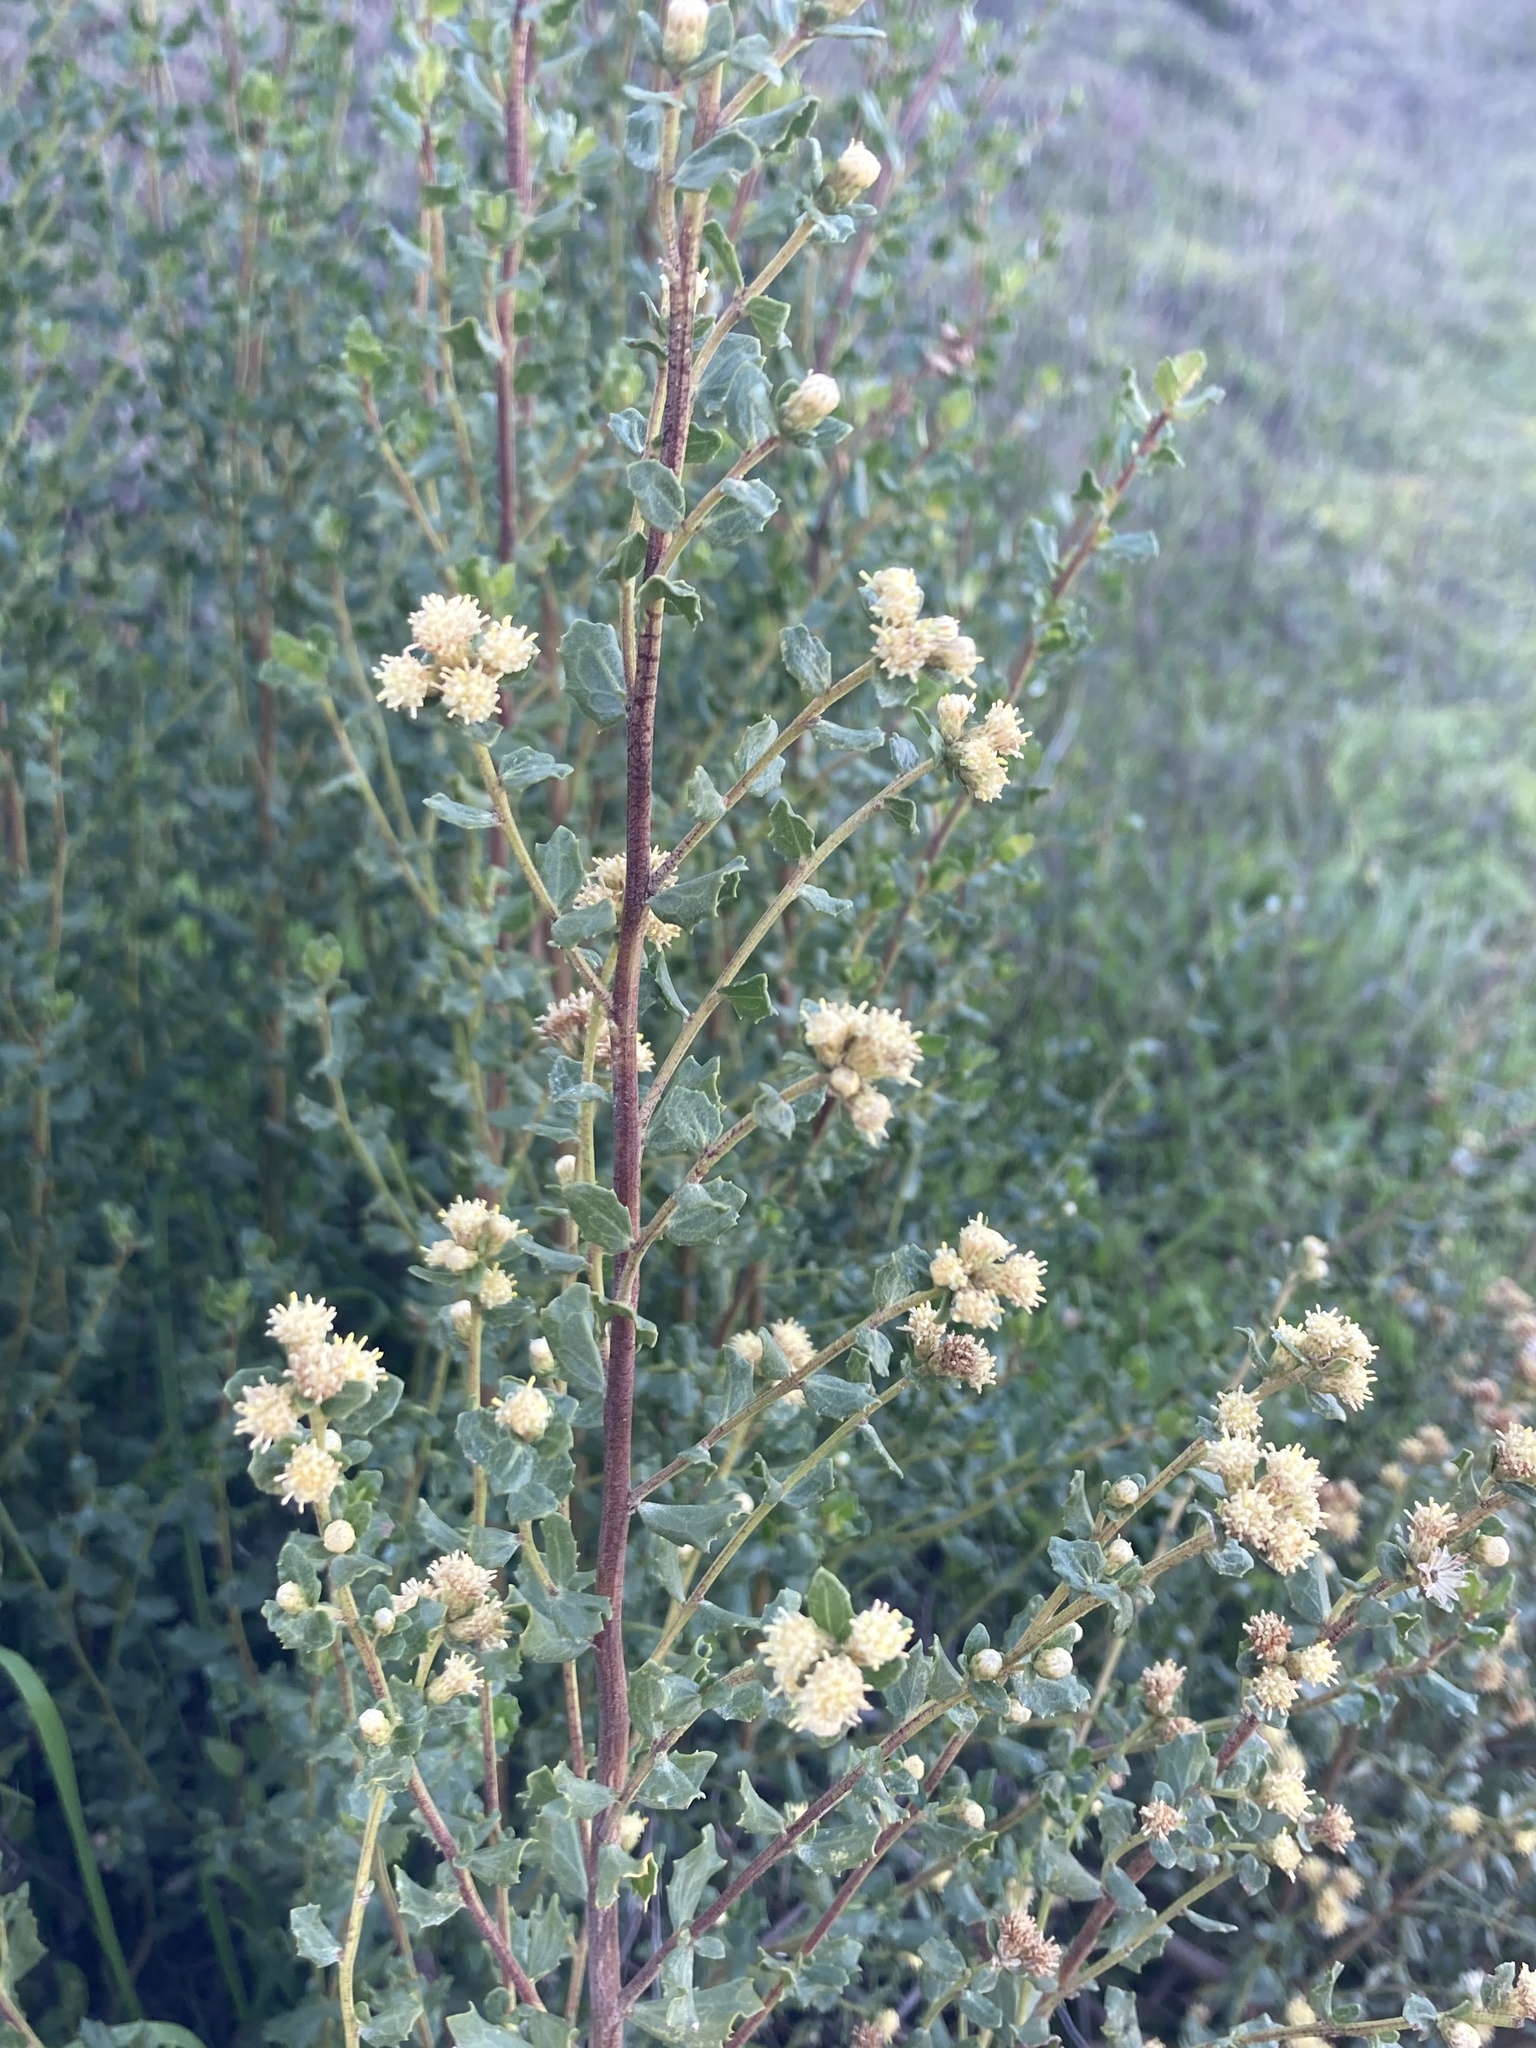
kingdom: Plantae
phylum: Tracheophyta
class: Magnoliopsida
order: Asterales
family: Asteraceae
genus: Baccharis
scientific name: Baccharis pilularis
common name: Coyotebrush
